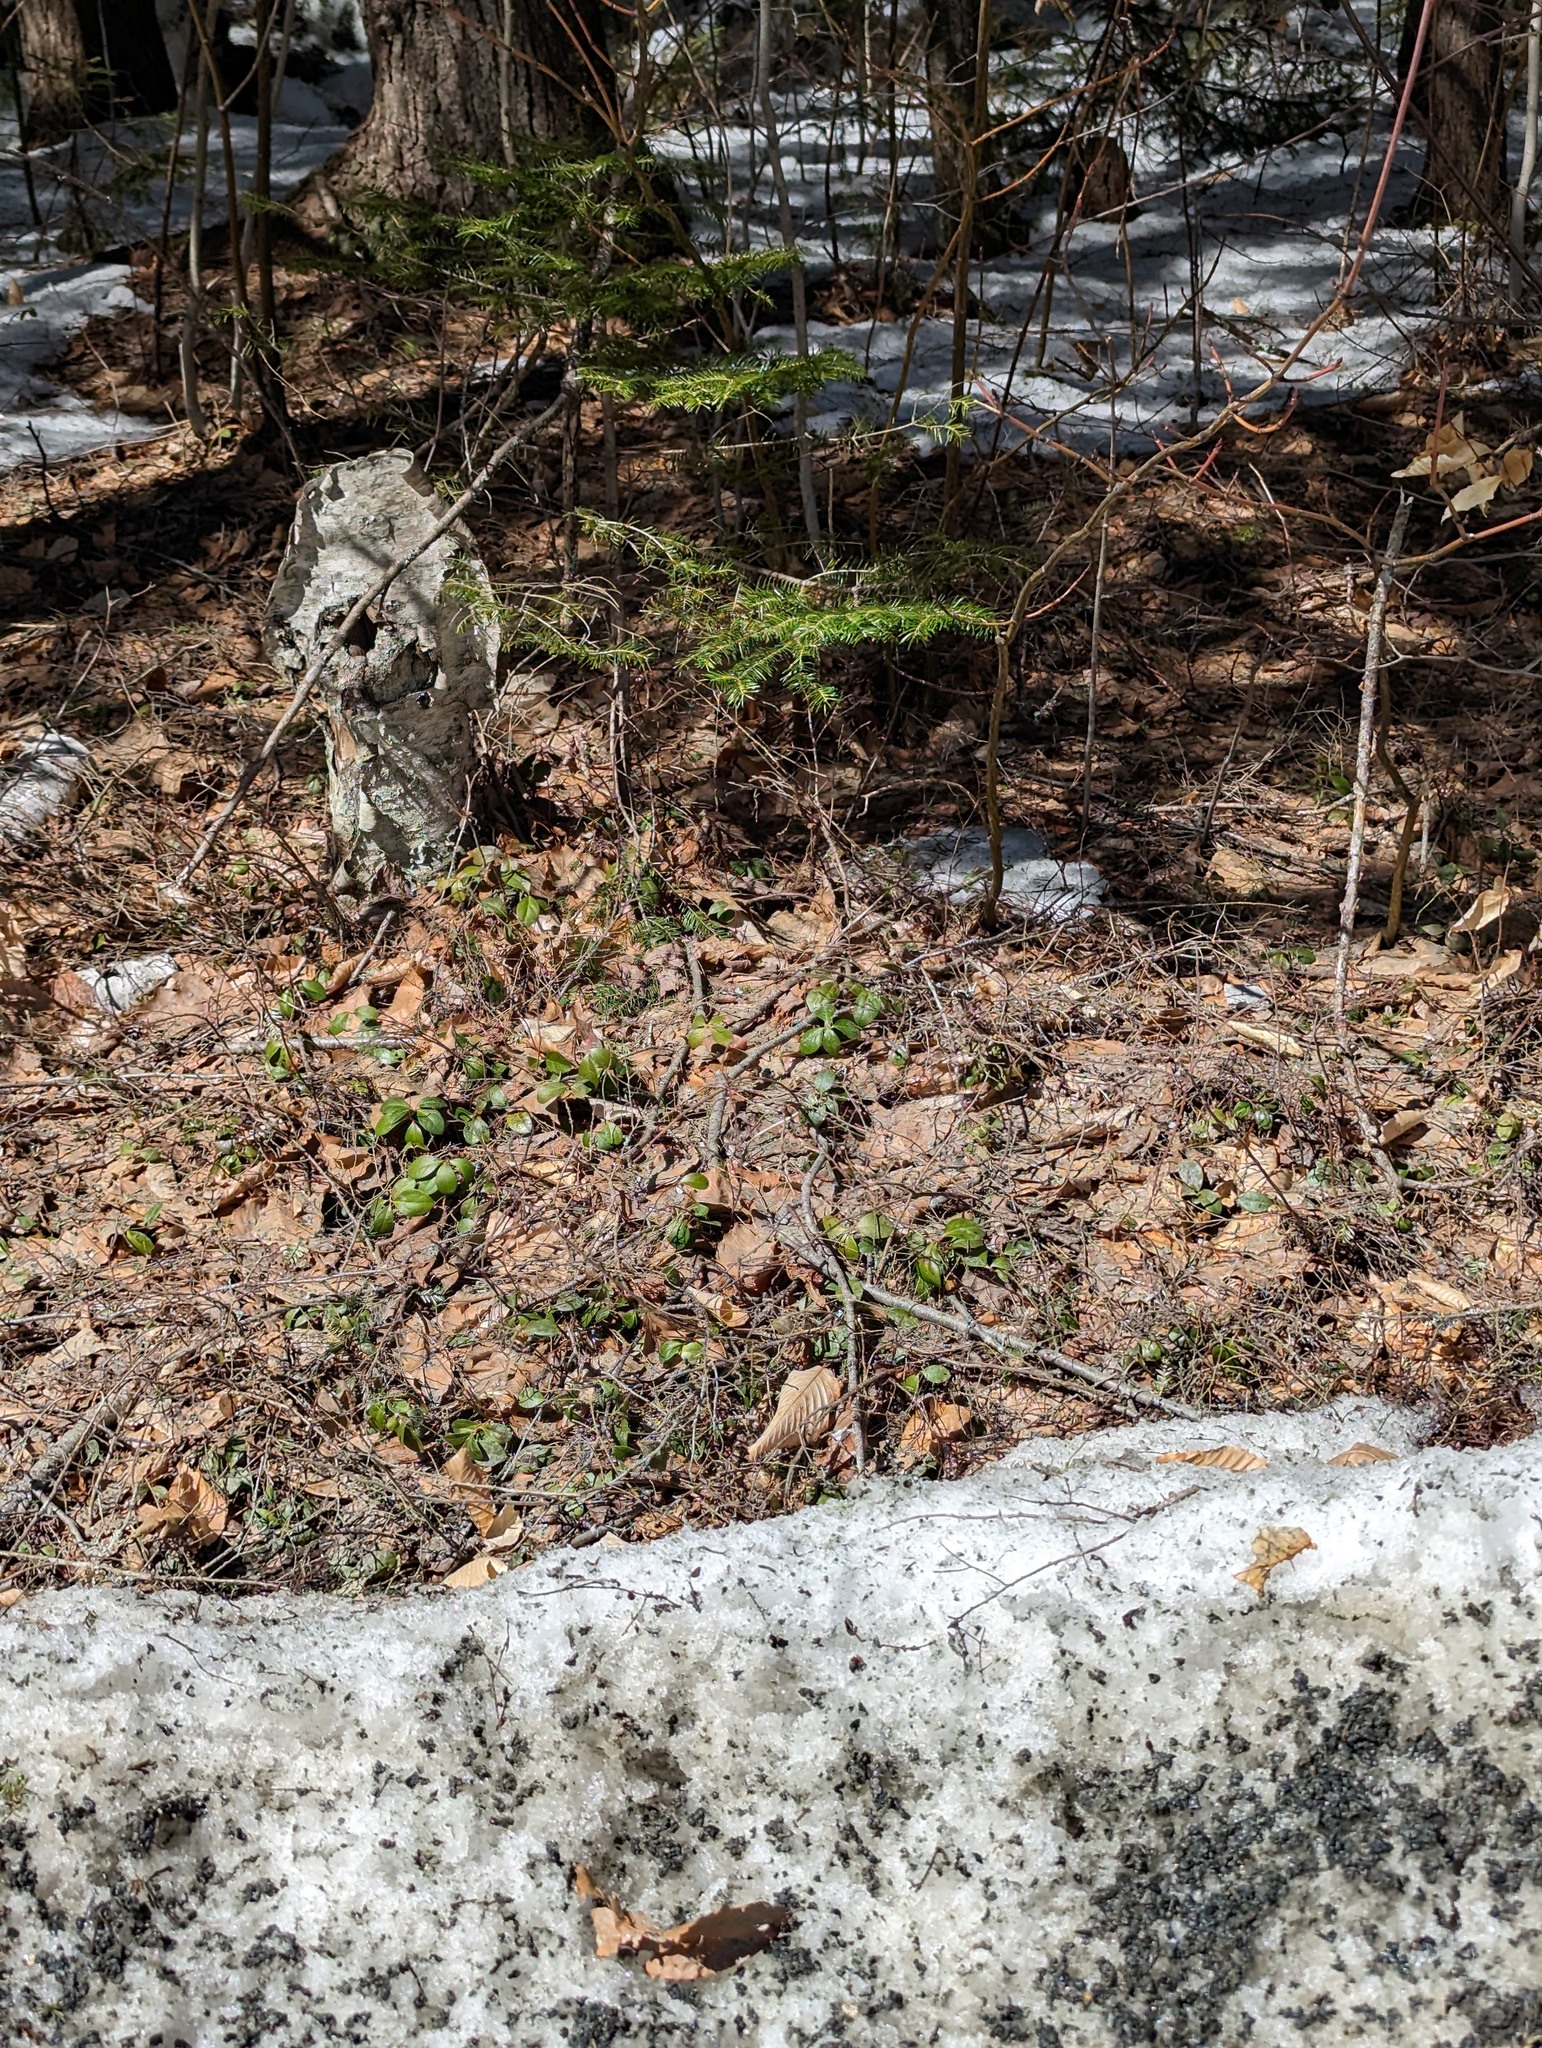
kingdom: Plantae
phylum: Tracheophyta
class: Magnoliopsida
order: Ericales
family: Ericaceae
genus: Gaultheria
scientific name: Gaultheria procumbens
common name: Checkerberry
